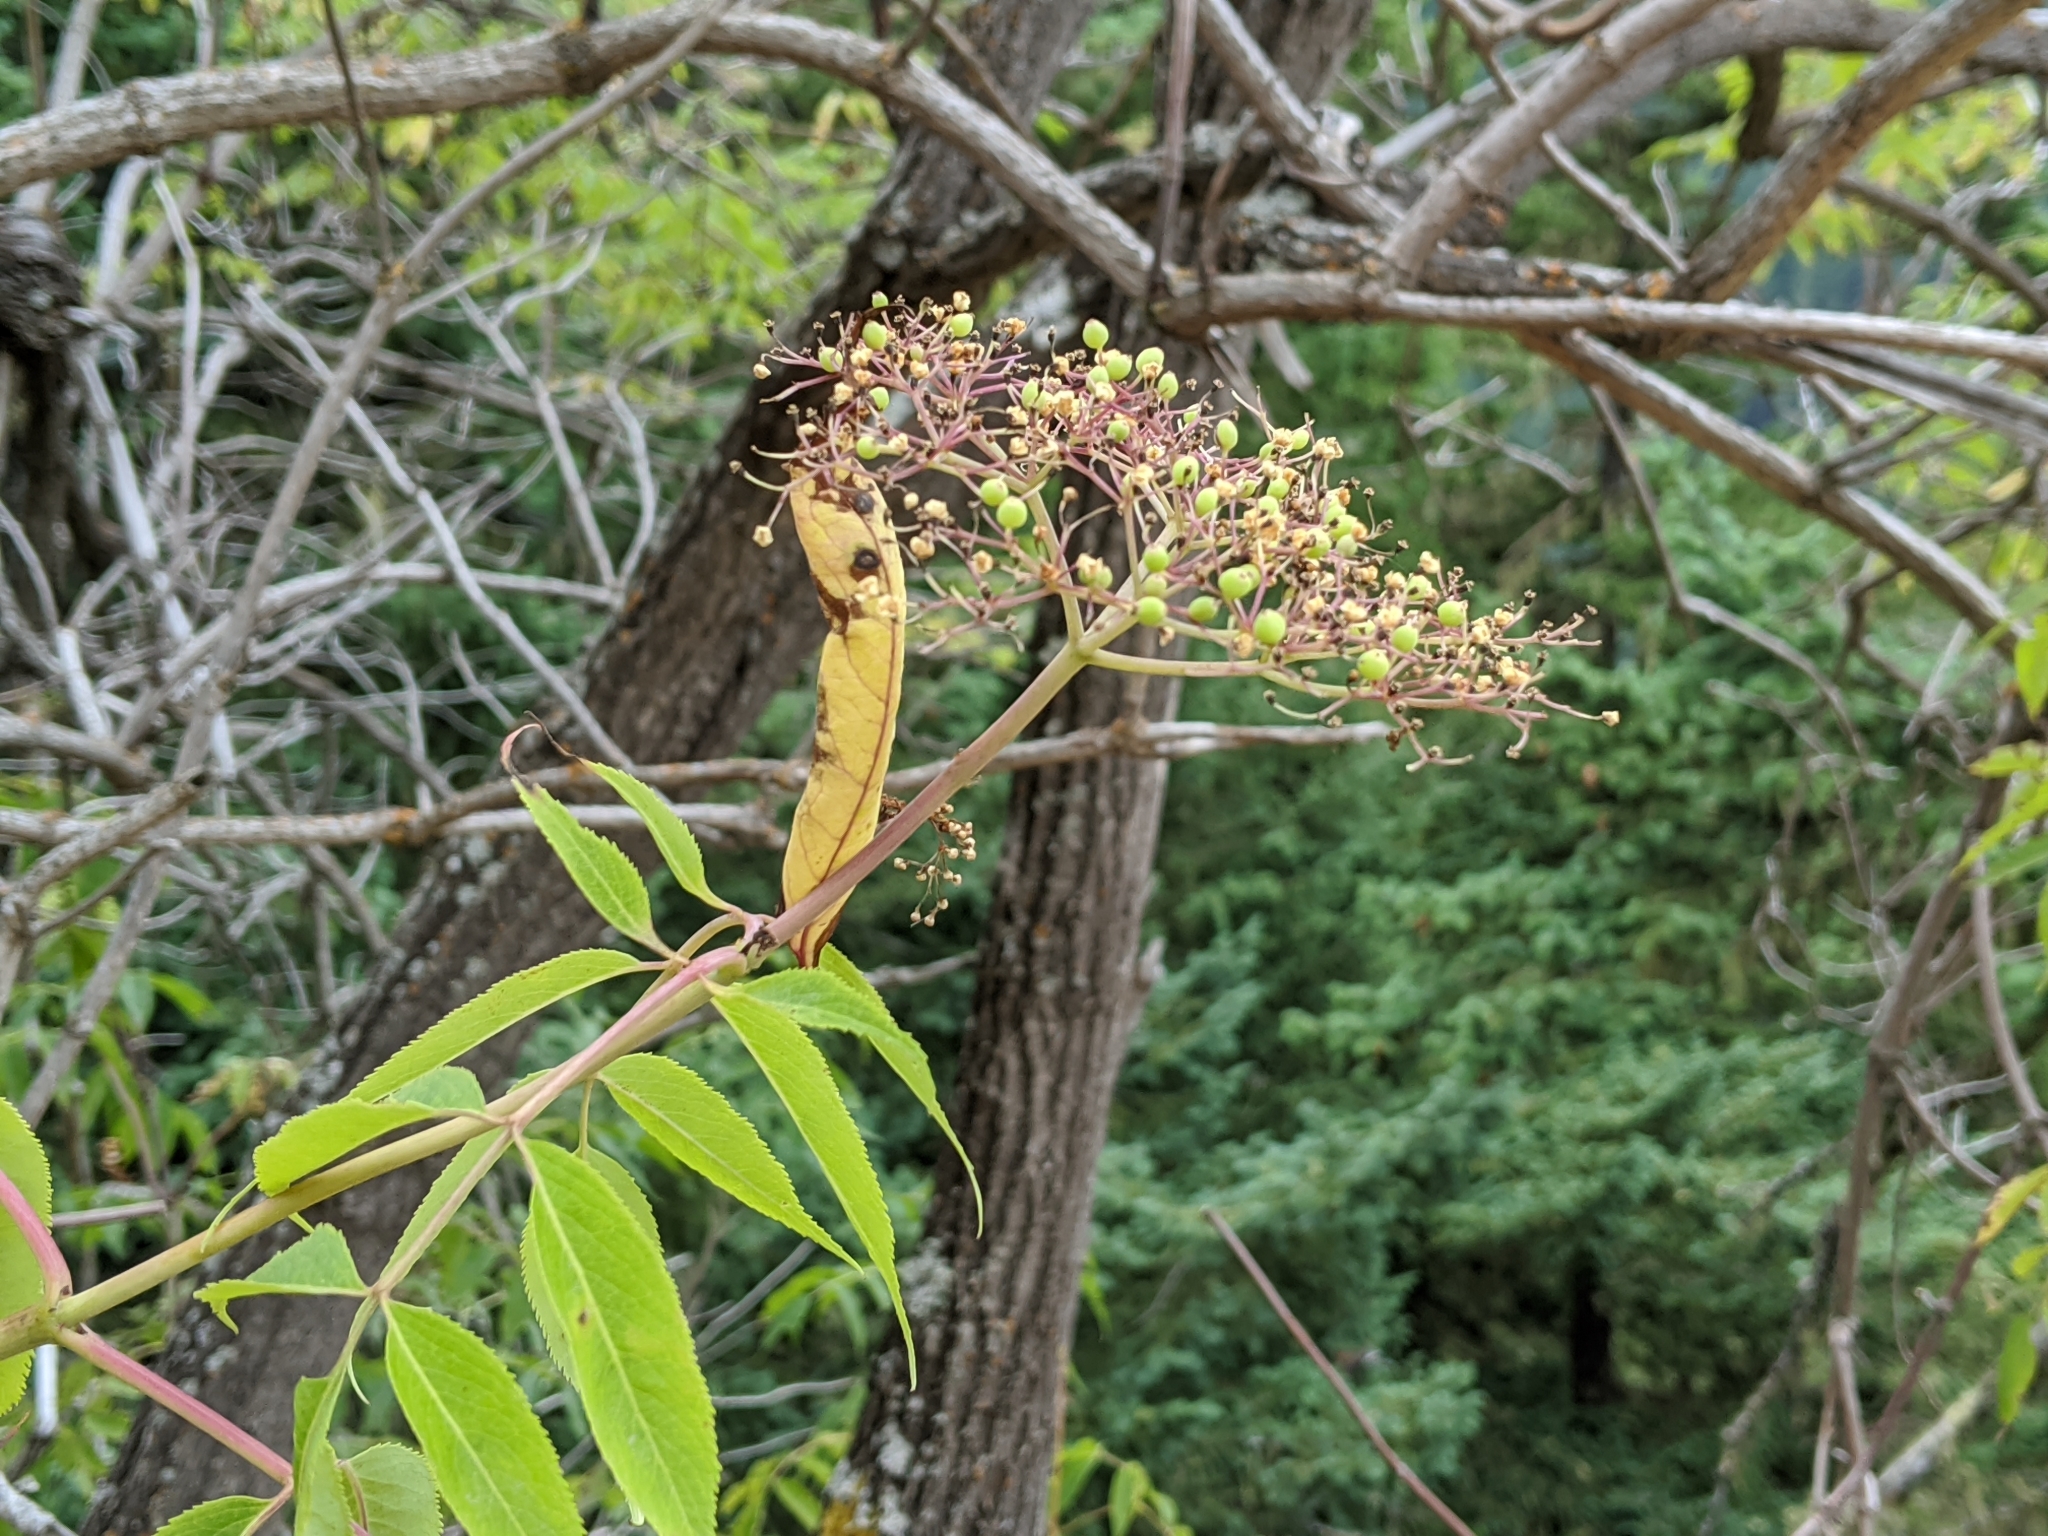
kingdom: Plantae
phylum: Tracheophyta
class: Magnoliopsida
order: Dipsacales
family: Viburnaceae
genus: Sambucus
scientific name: Sambucus cerulea
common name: Blue elder
